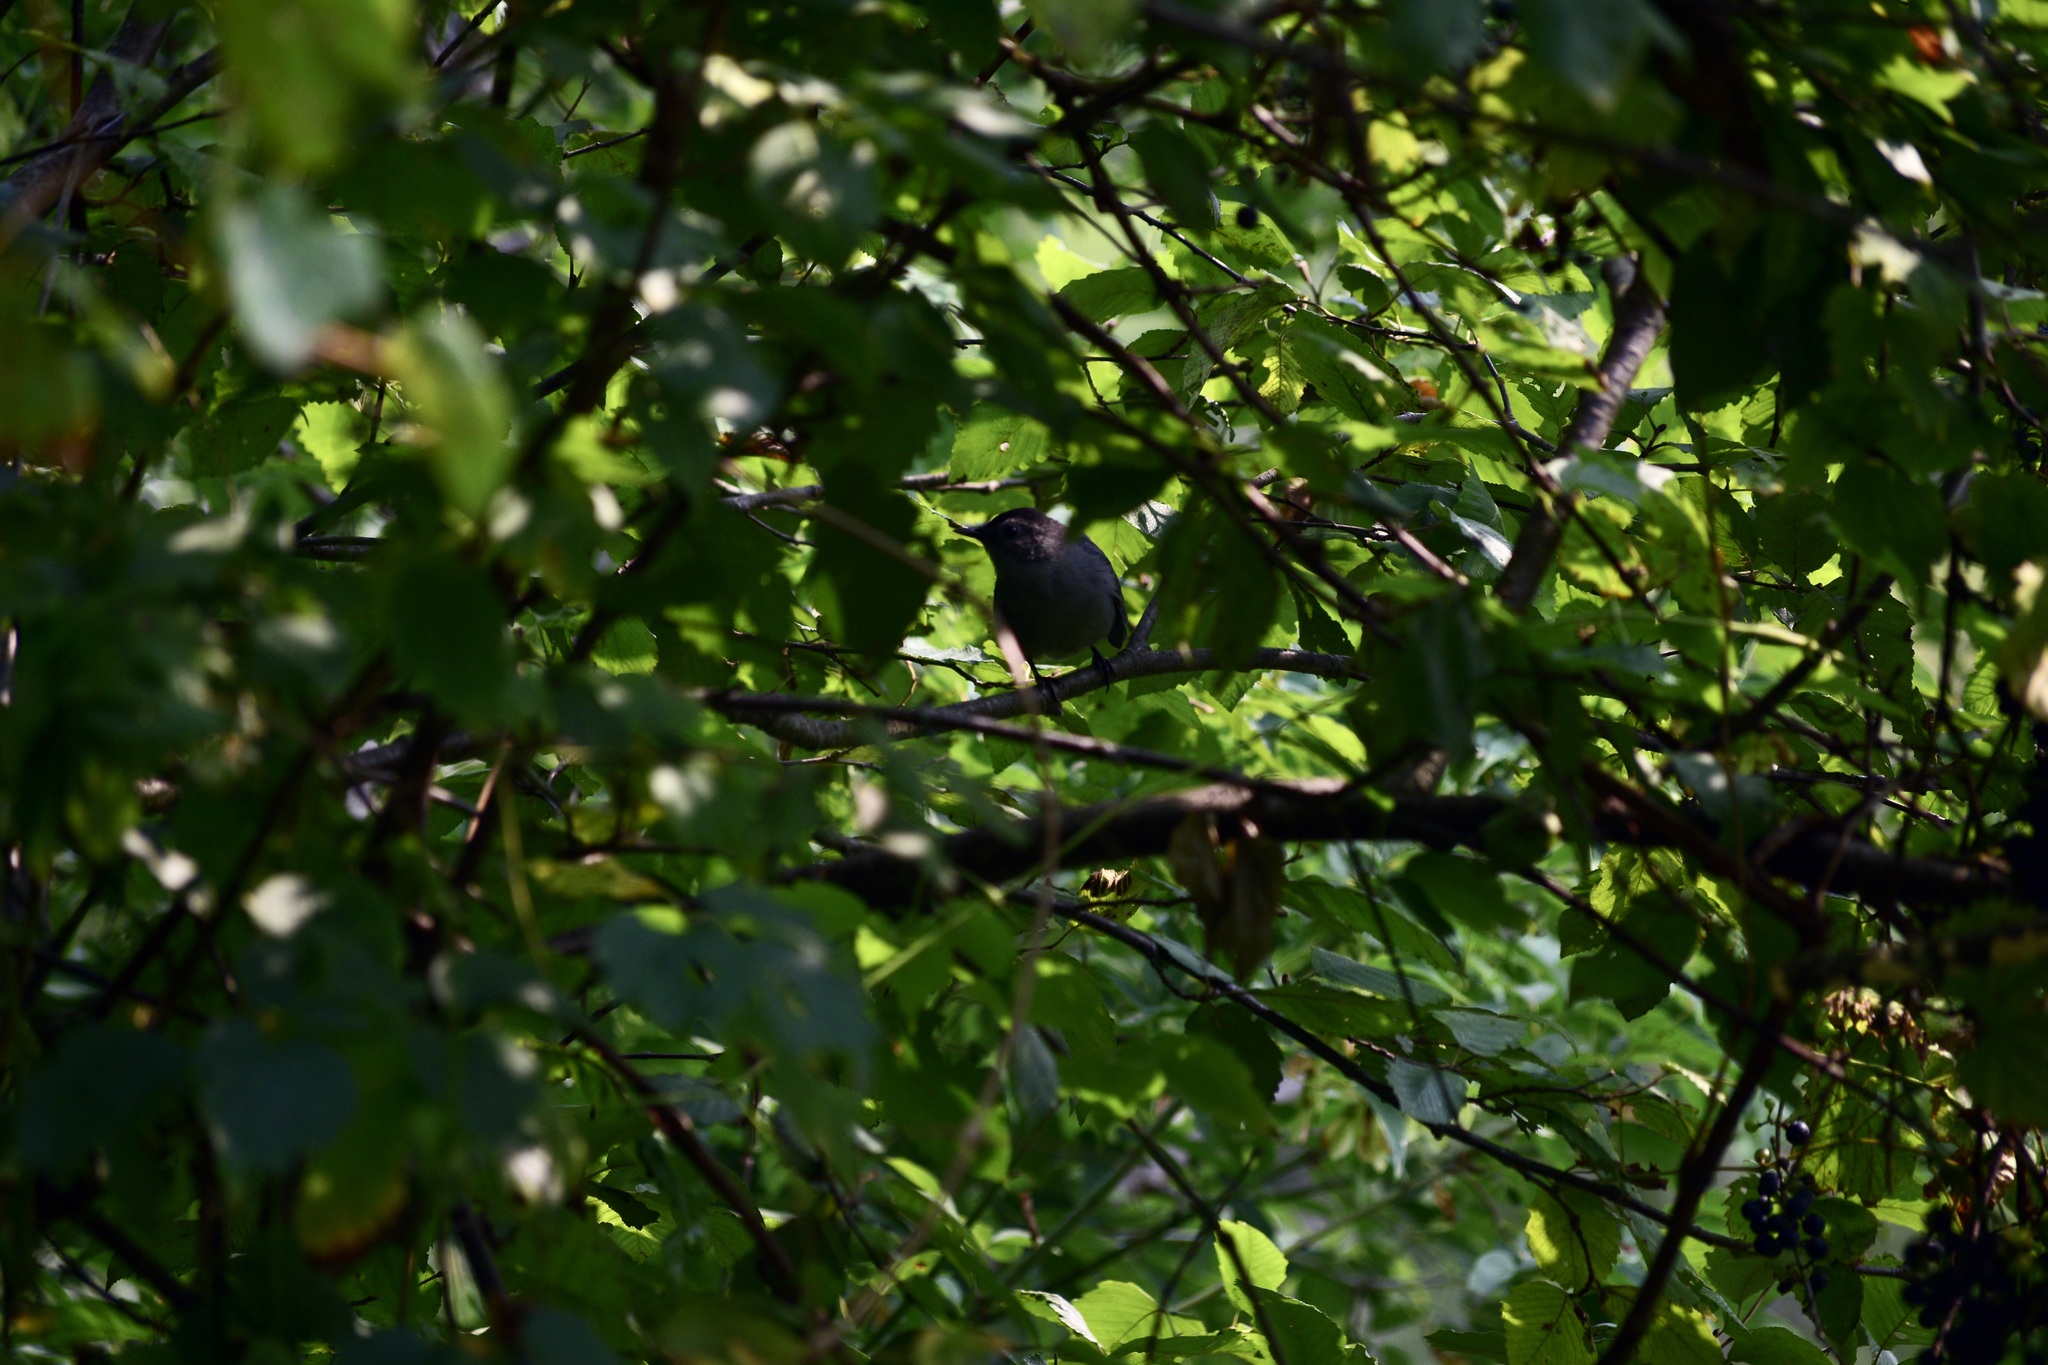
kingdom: Animalia
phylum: Chordata
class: Aves
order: Passeriformes
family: Mimidae
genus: Dumetella
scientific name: Dumetella carolinensis
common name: Gray catbird
